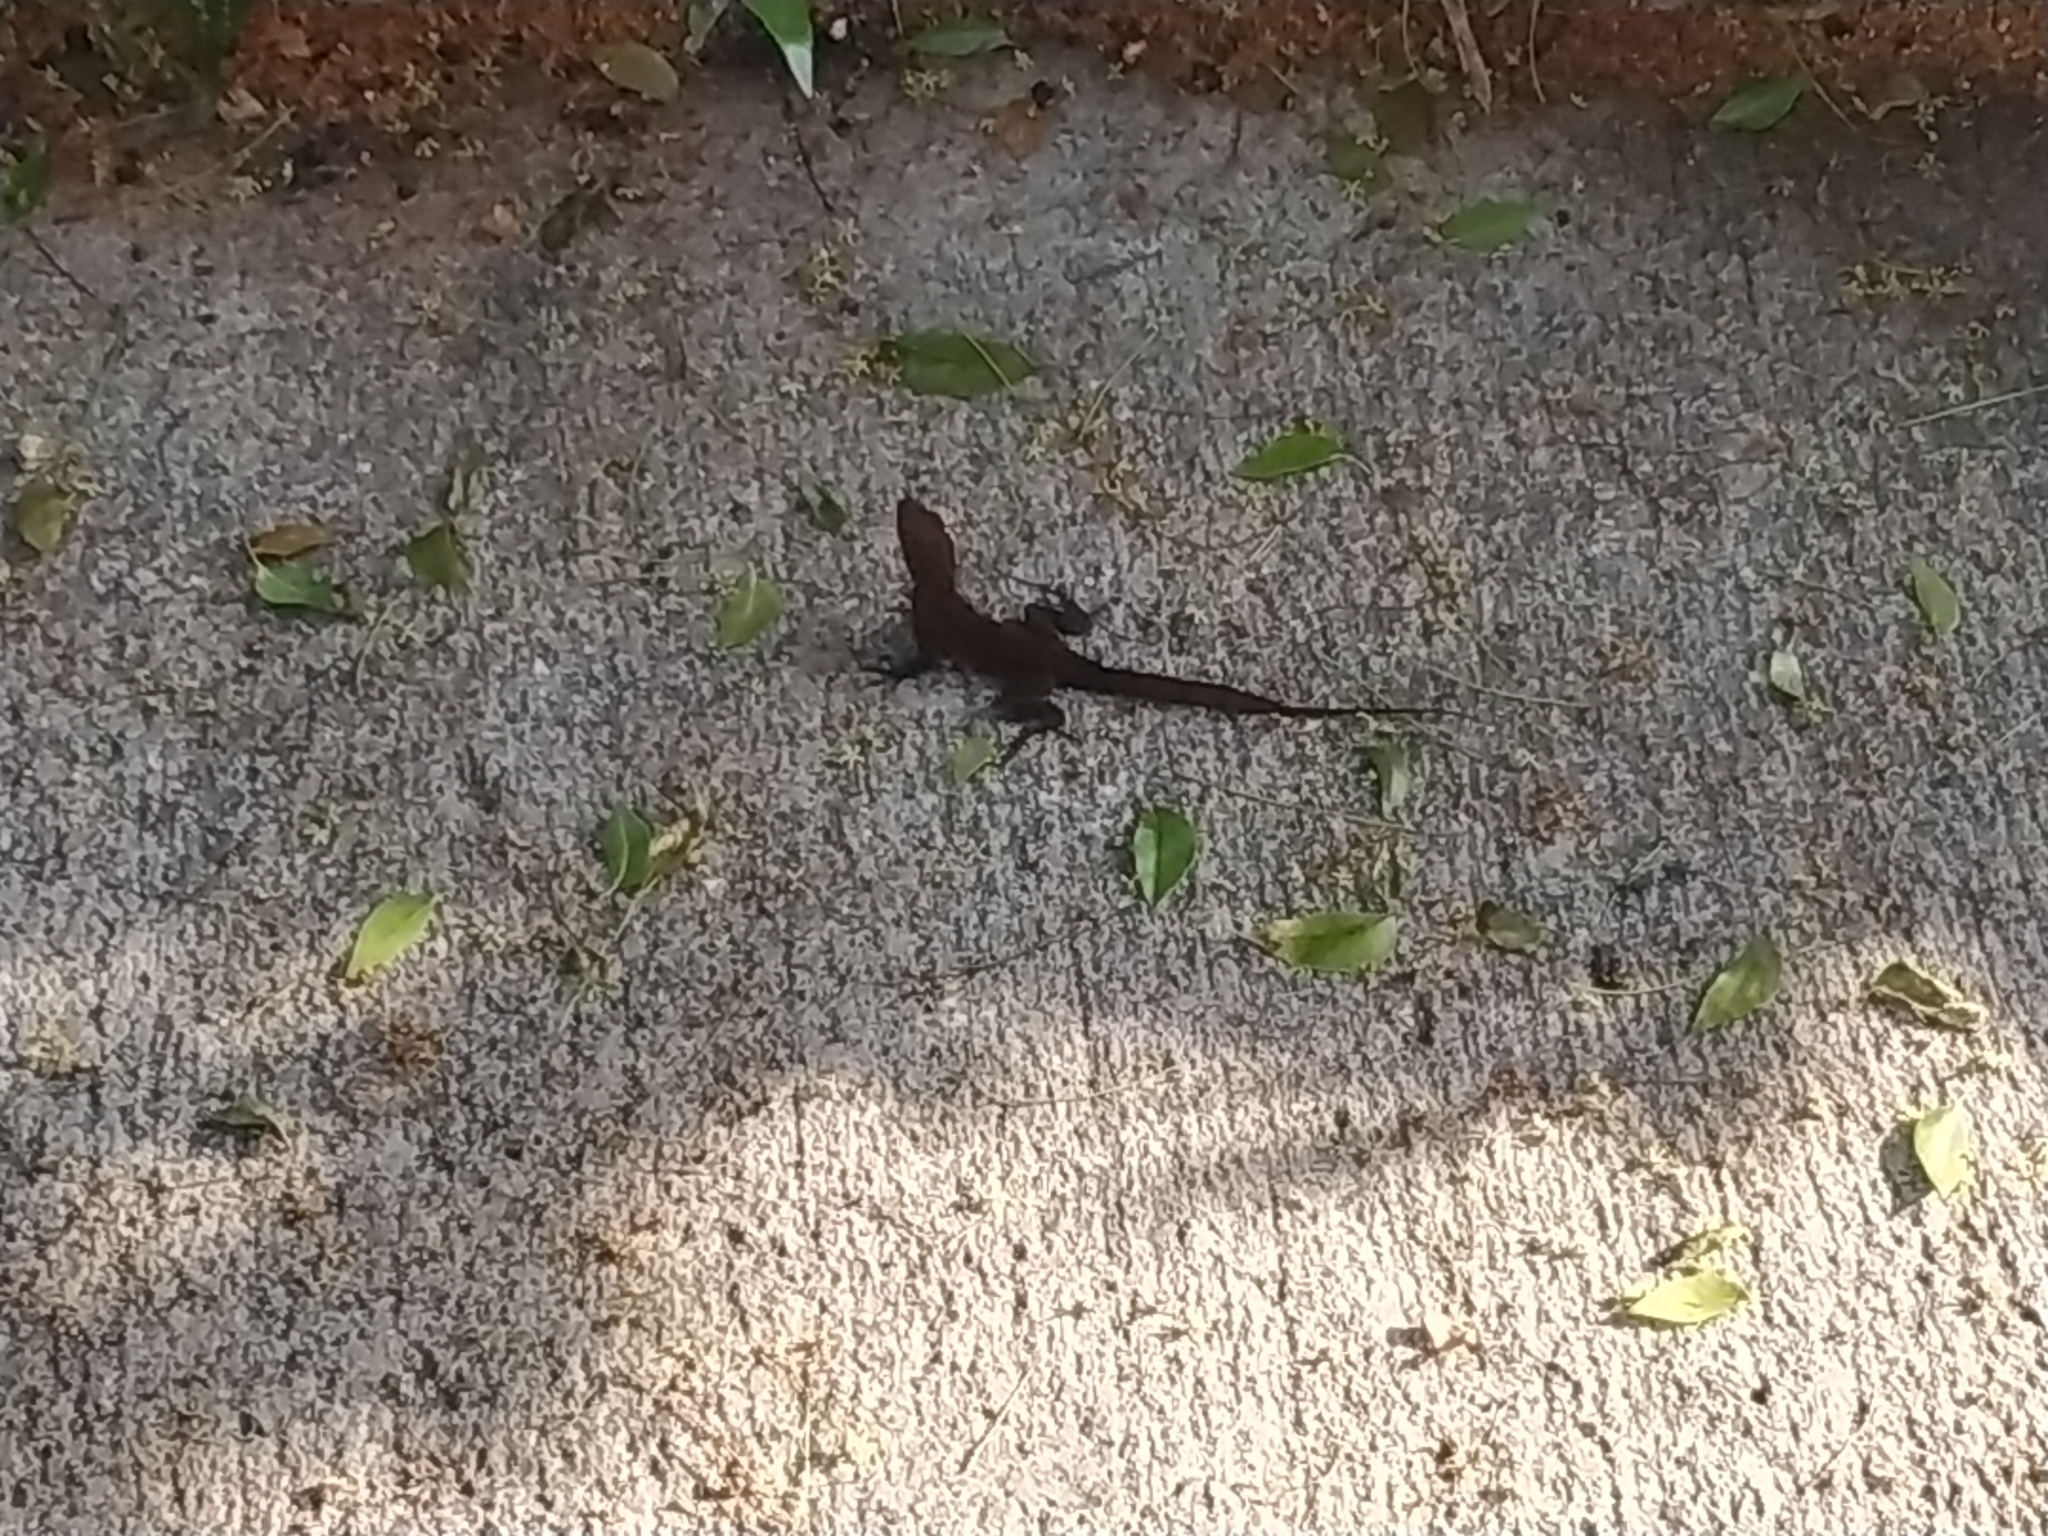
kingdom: Animalia
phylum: Chordata
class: Squamata
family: Dactyloidae
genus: Anolis
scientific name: Anolis cristatellus
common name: Crested anole
